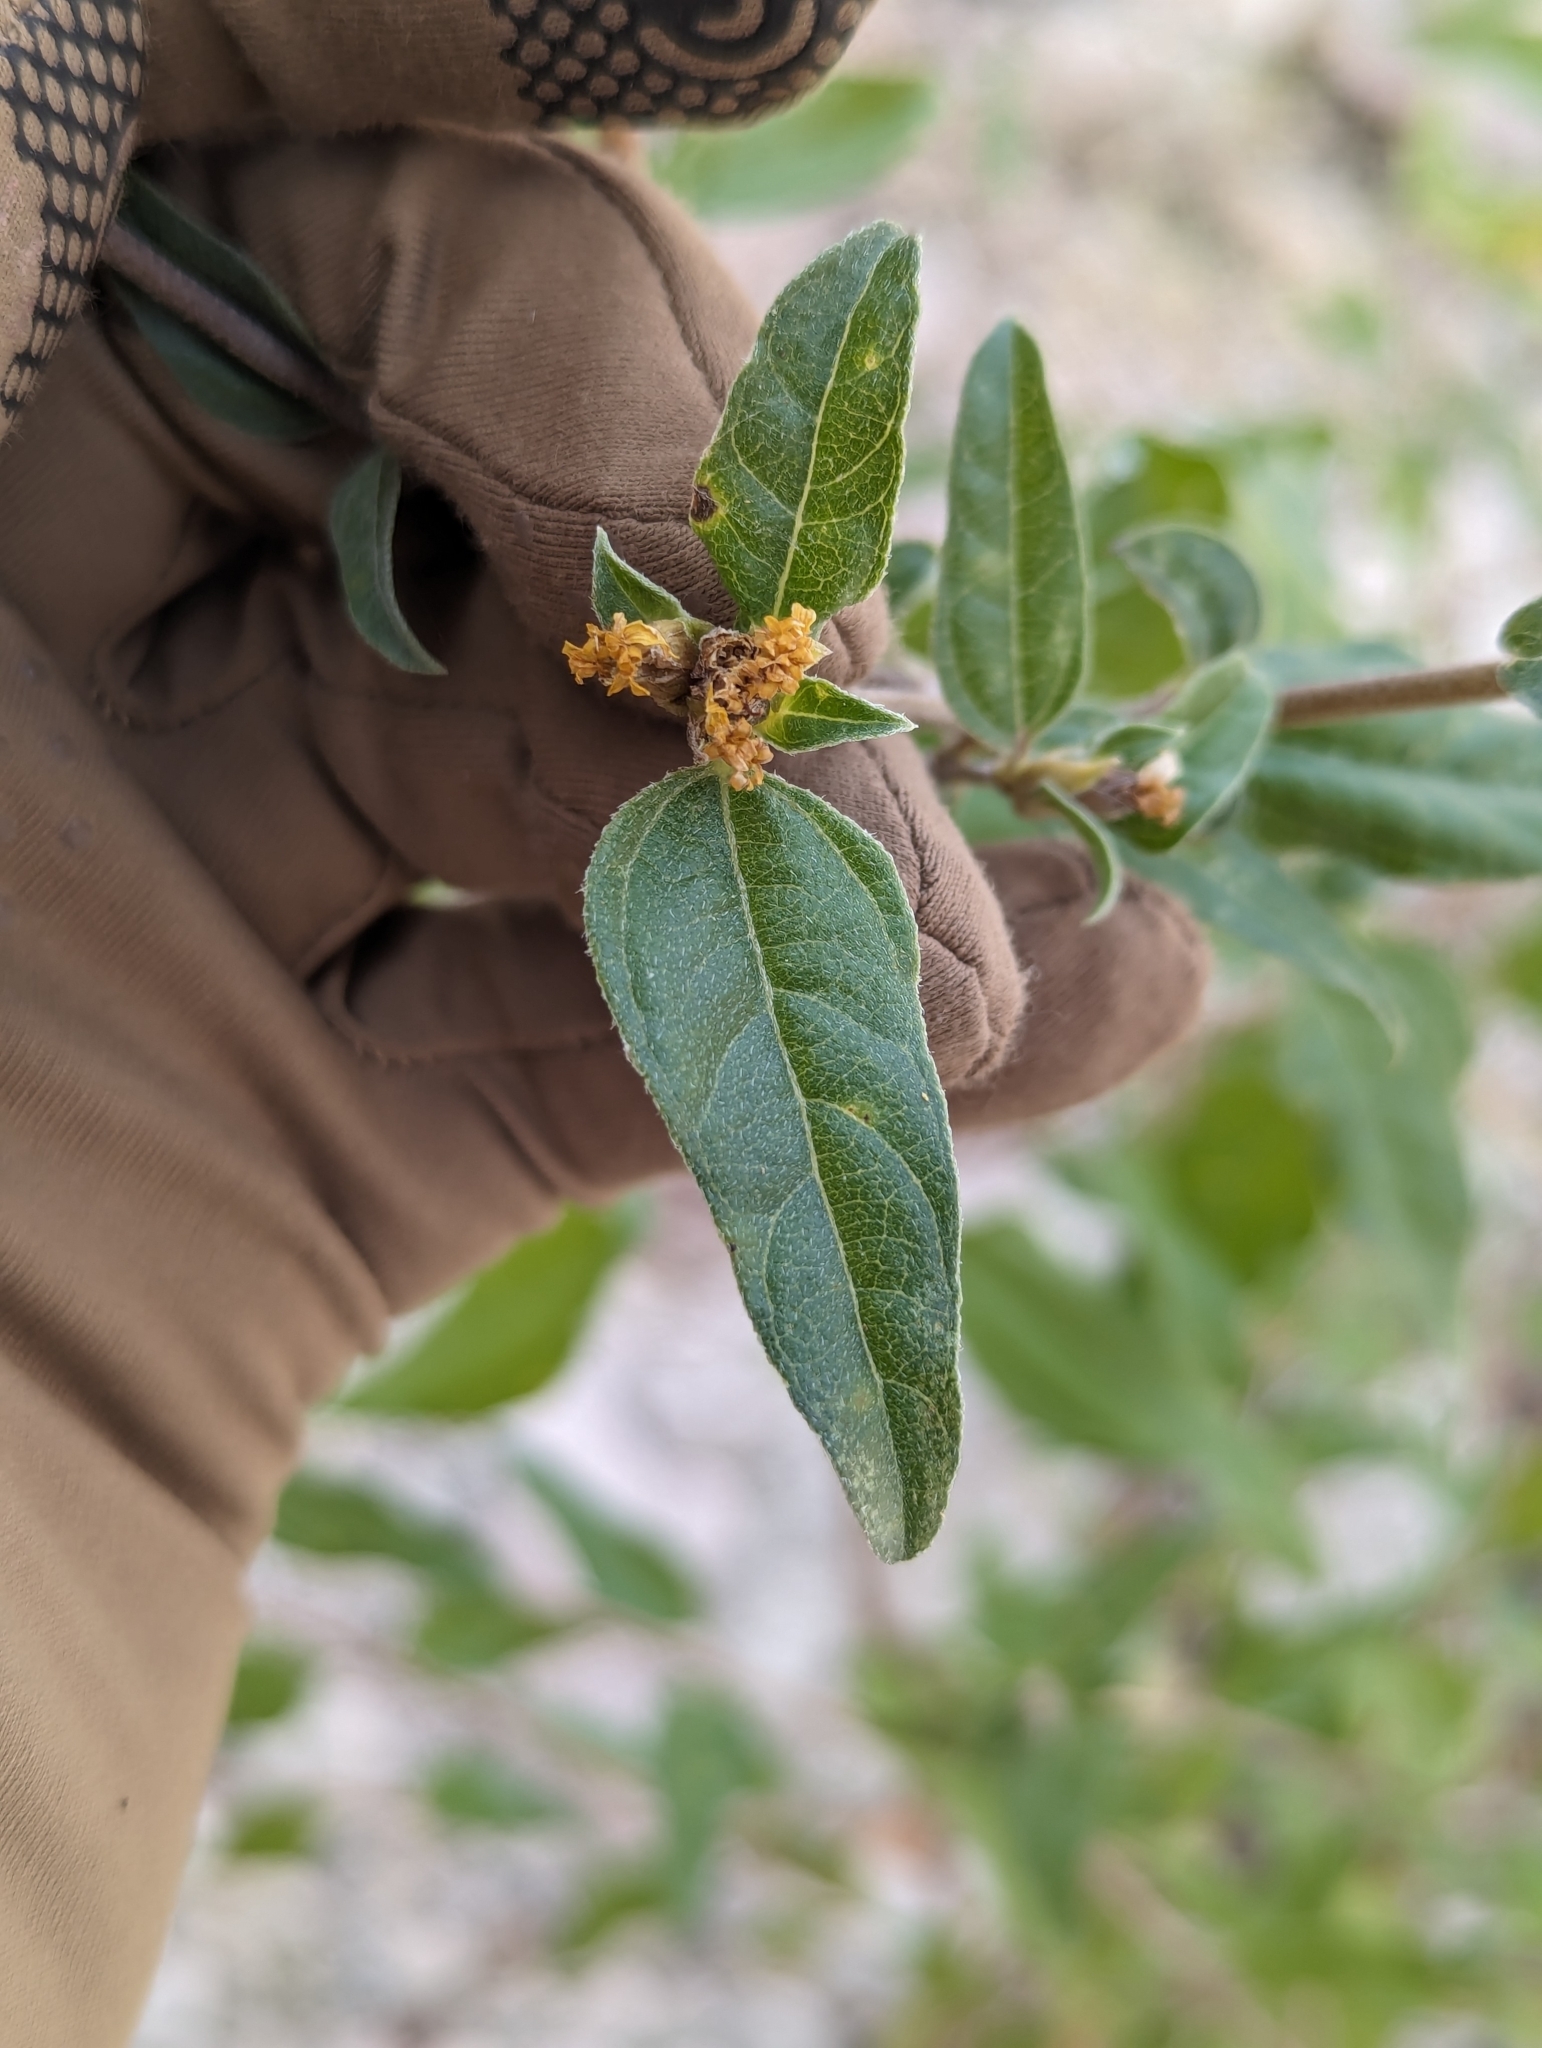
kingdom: Plantae
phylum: Tracheophyta
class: Magnoliopsida
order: Asterales
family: Asteraceae
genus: Aldama
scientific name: Aldama glomerata
